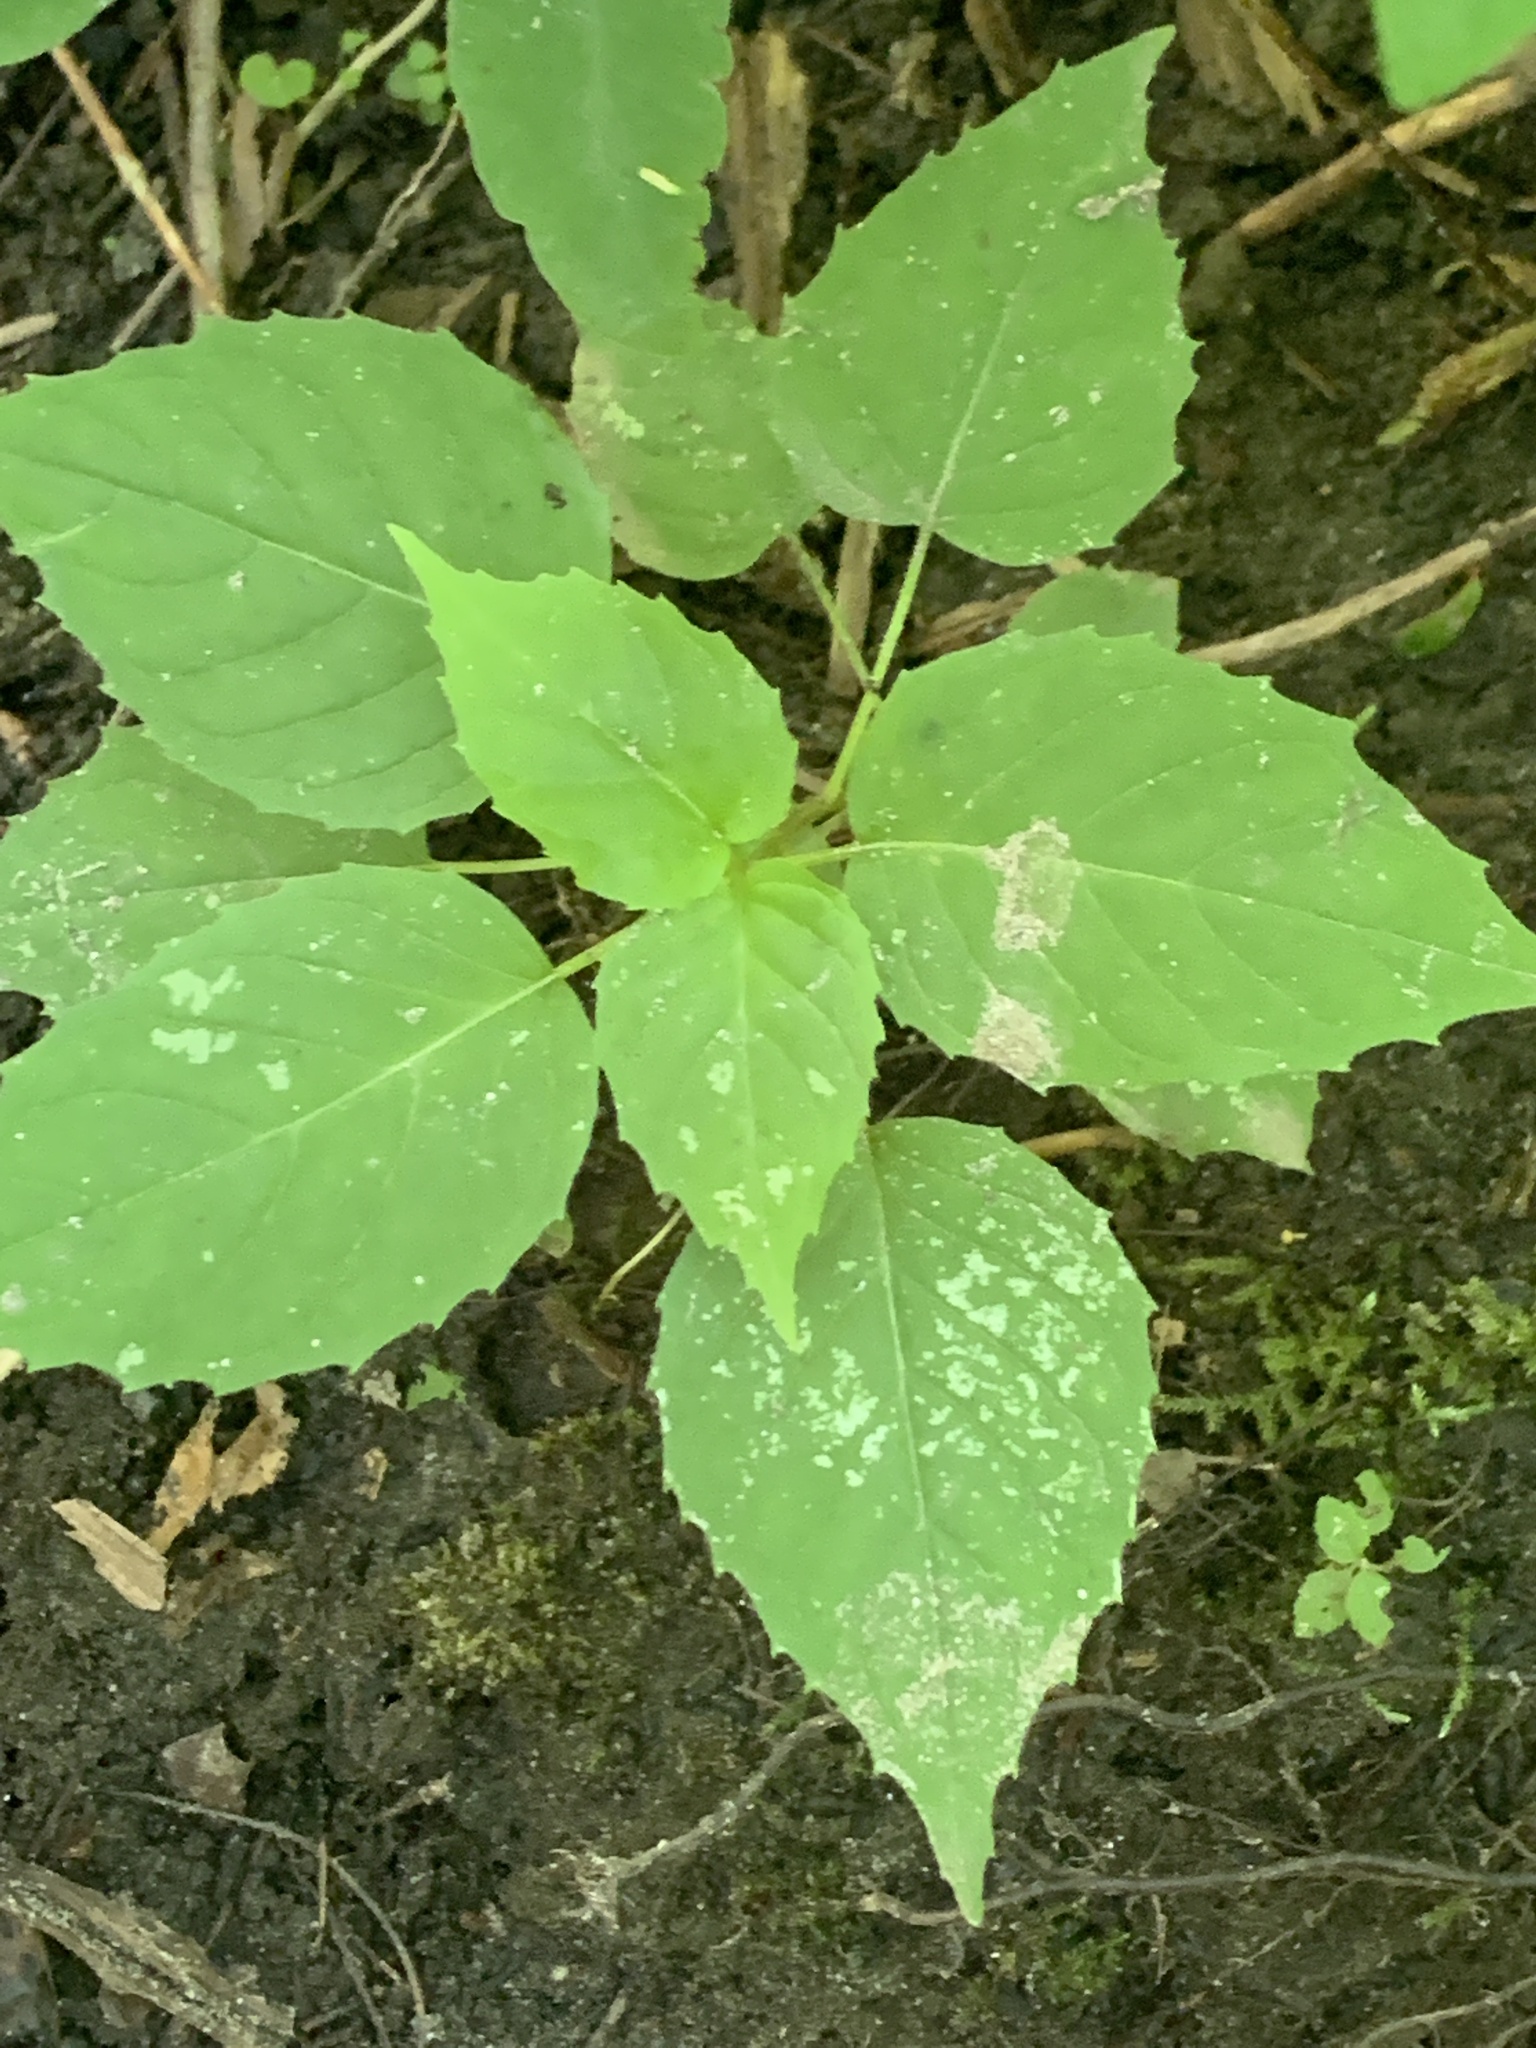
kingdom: Plantae
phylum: Tracheophyta
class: Magnoliopsida
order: Myrtales
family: Onagraceae
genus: Circaea
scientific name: Circaea canadensis
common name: Broad-leaved enchanter's nightshade
